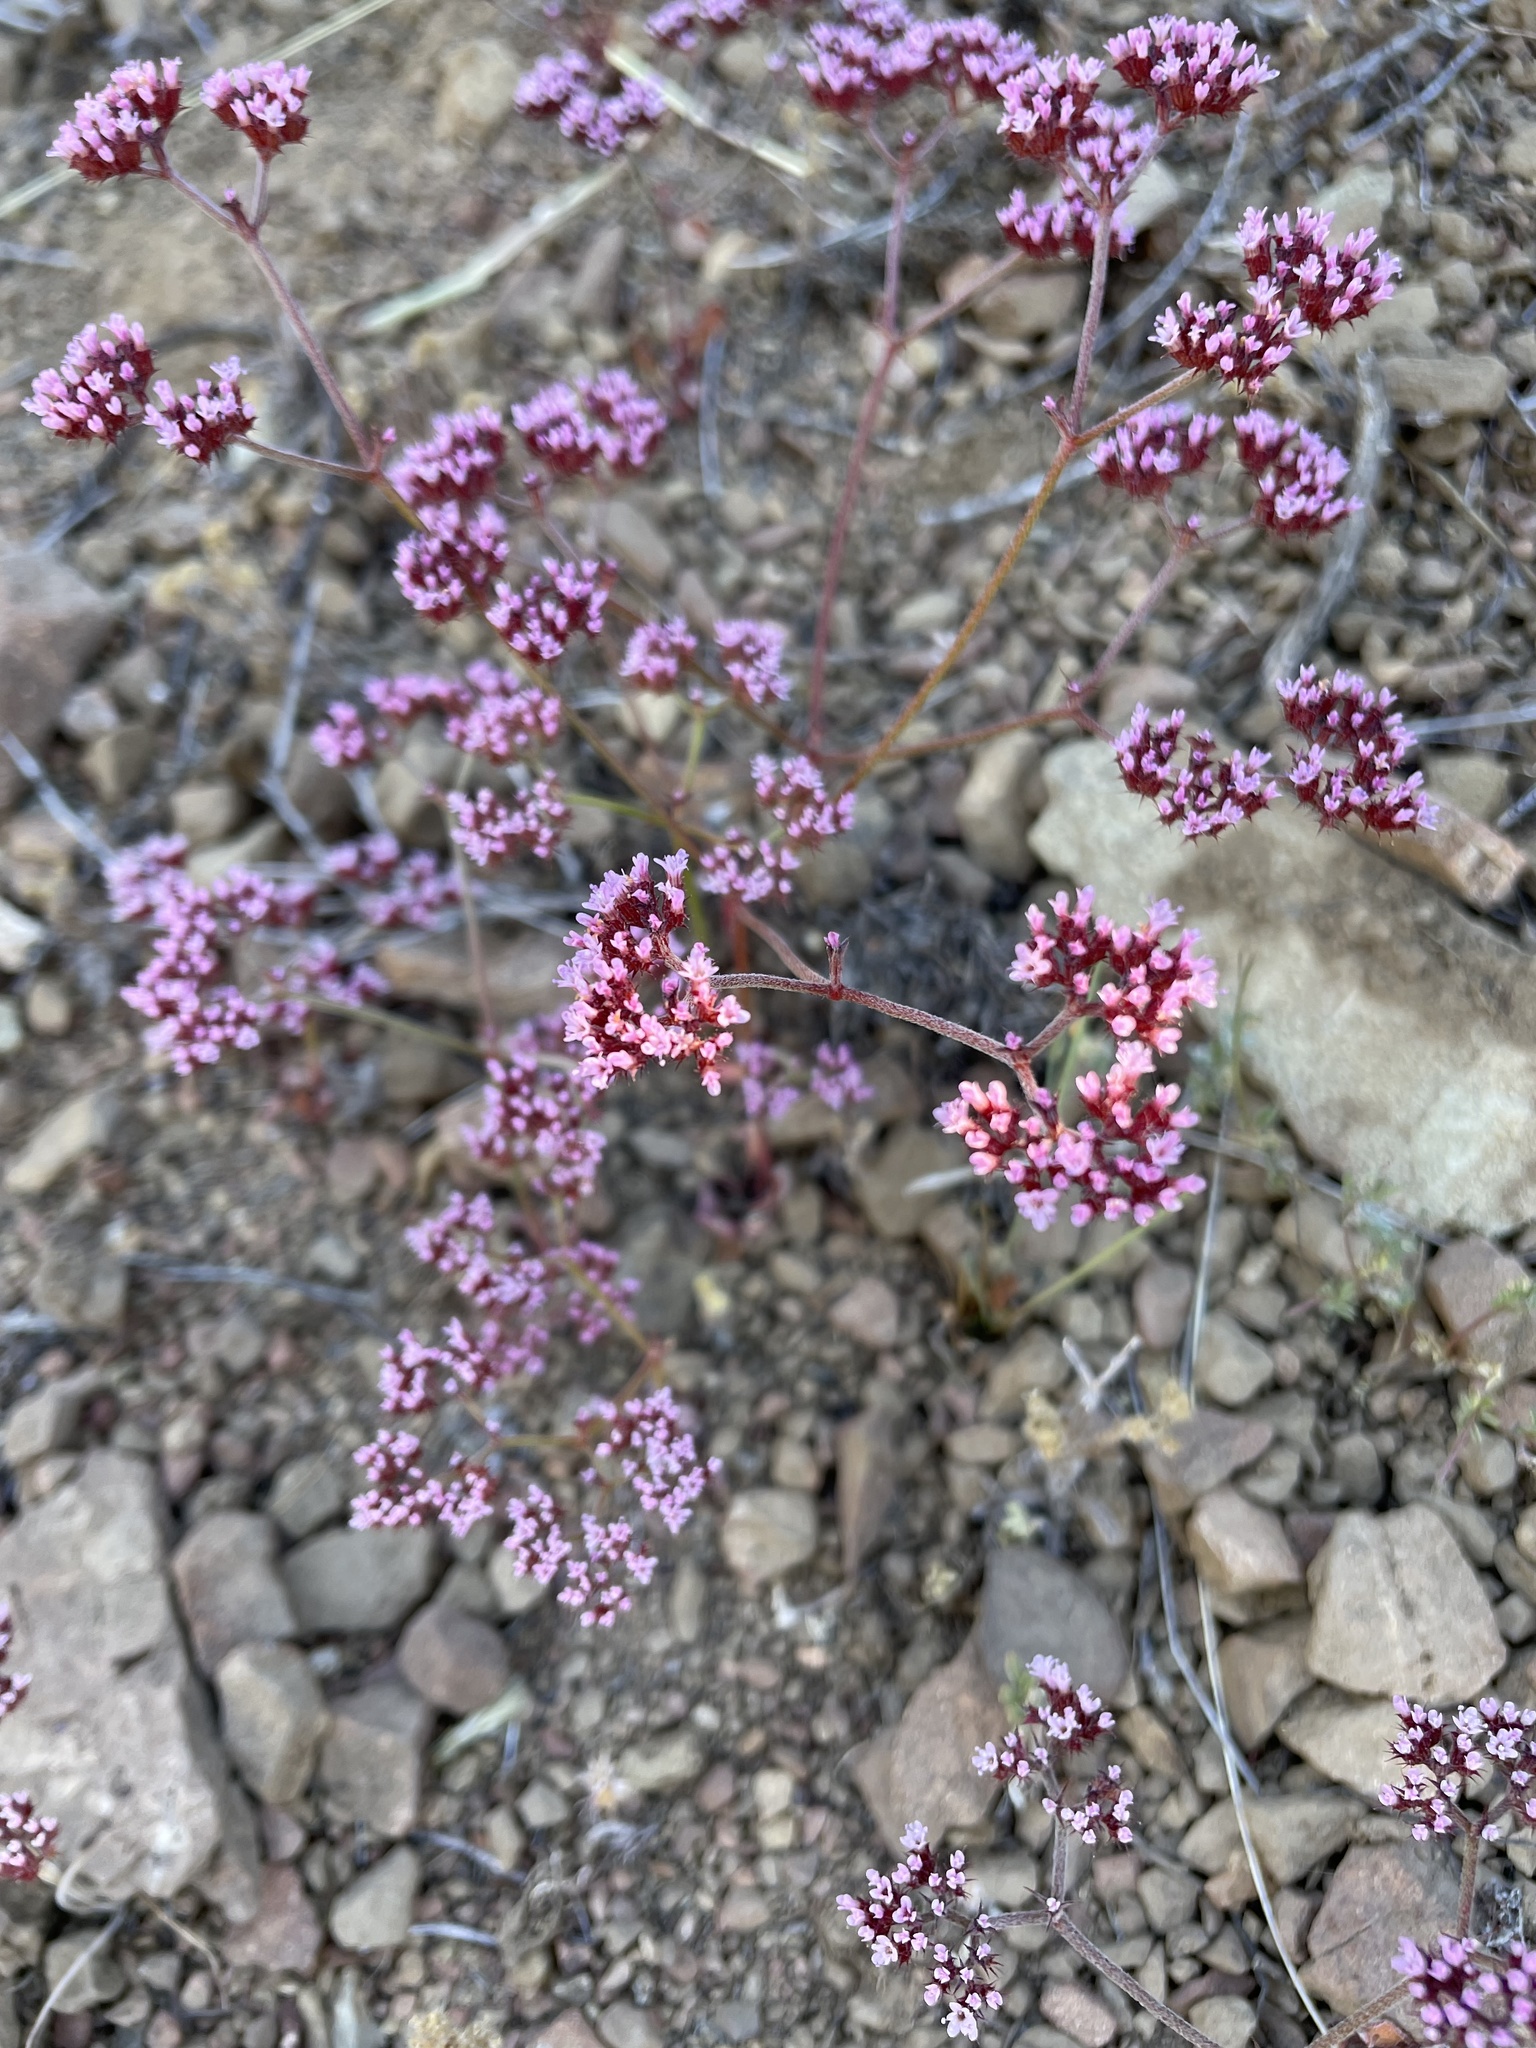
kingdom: Plantae
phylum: Tracheophyta
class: Magnoliopsida
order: Caryophyllales
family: Polygonaceae
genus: Chorizanthe
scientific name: Chorizanthe staticoides
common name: Turkish rugging
